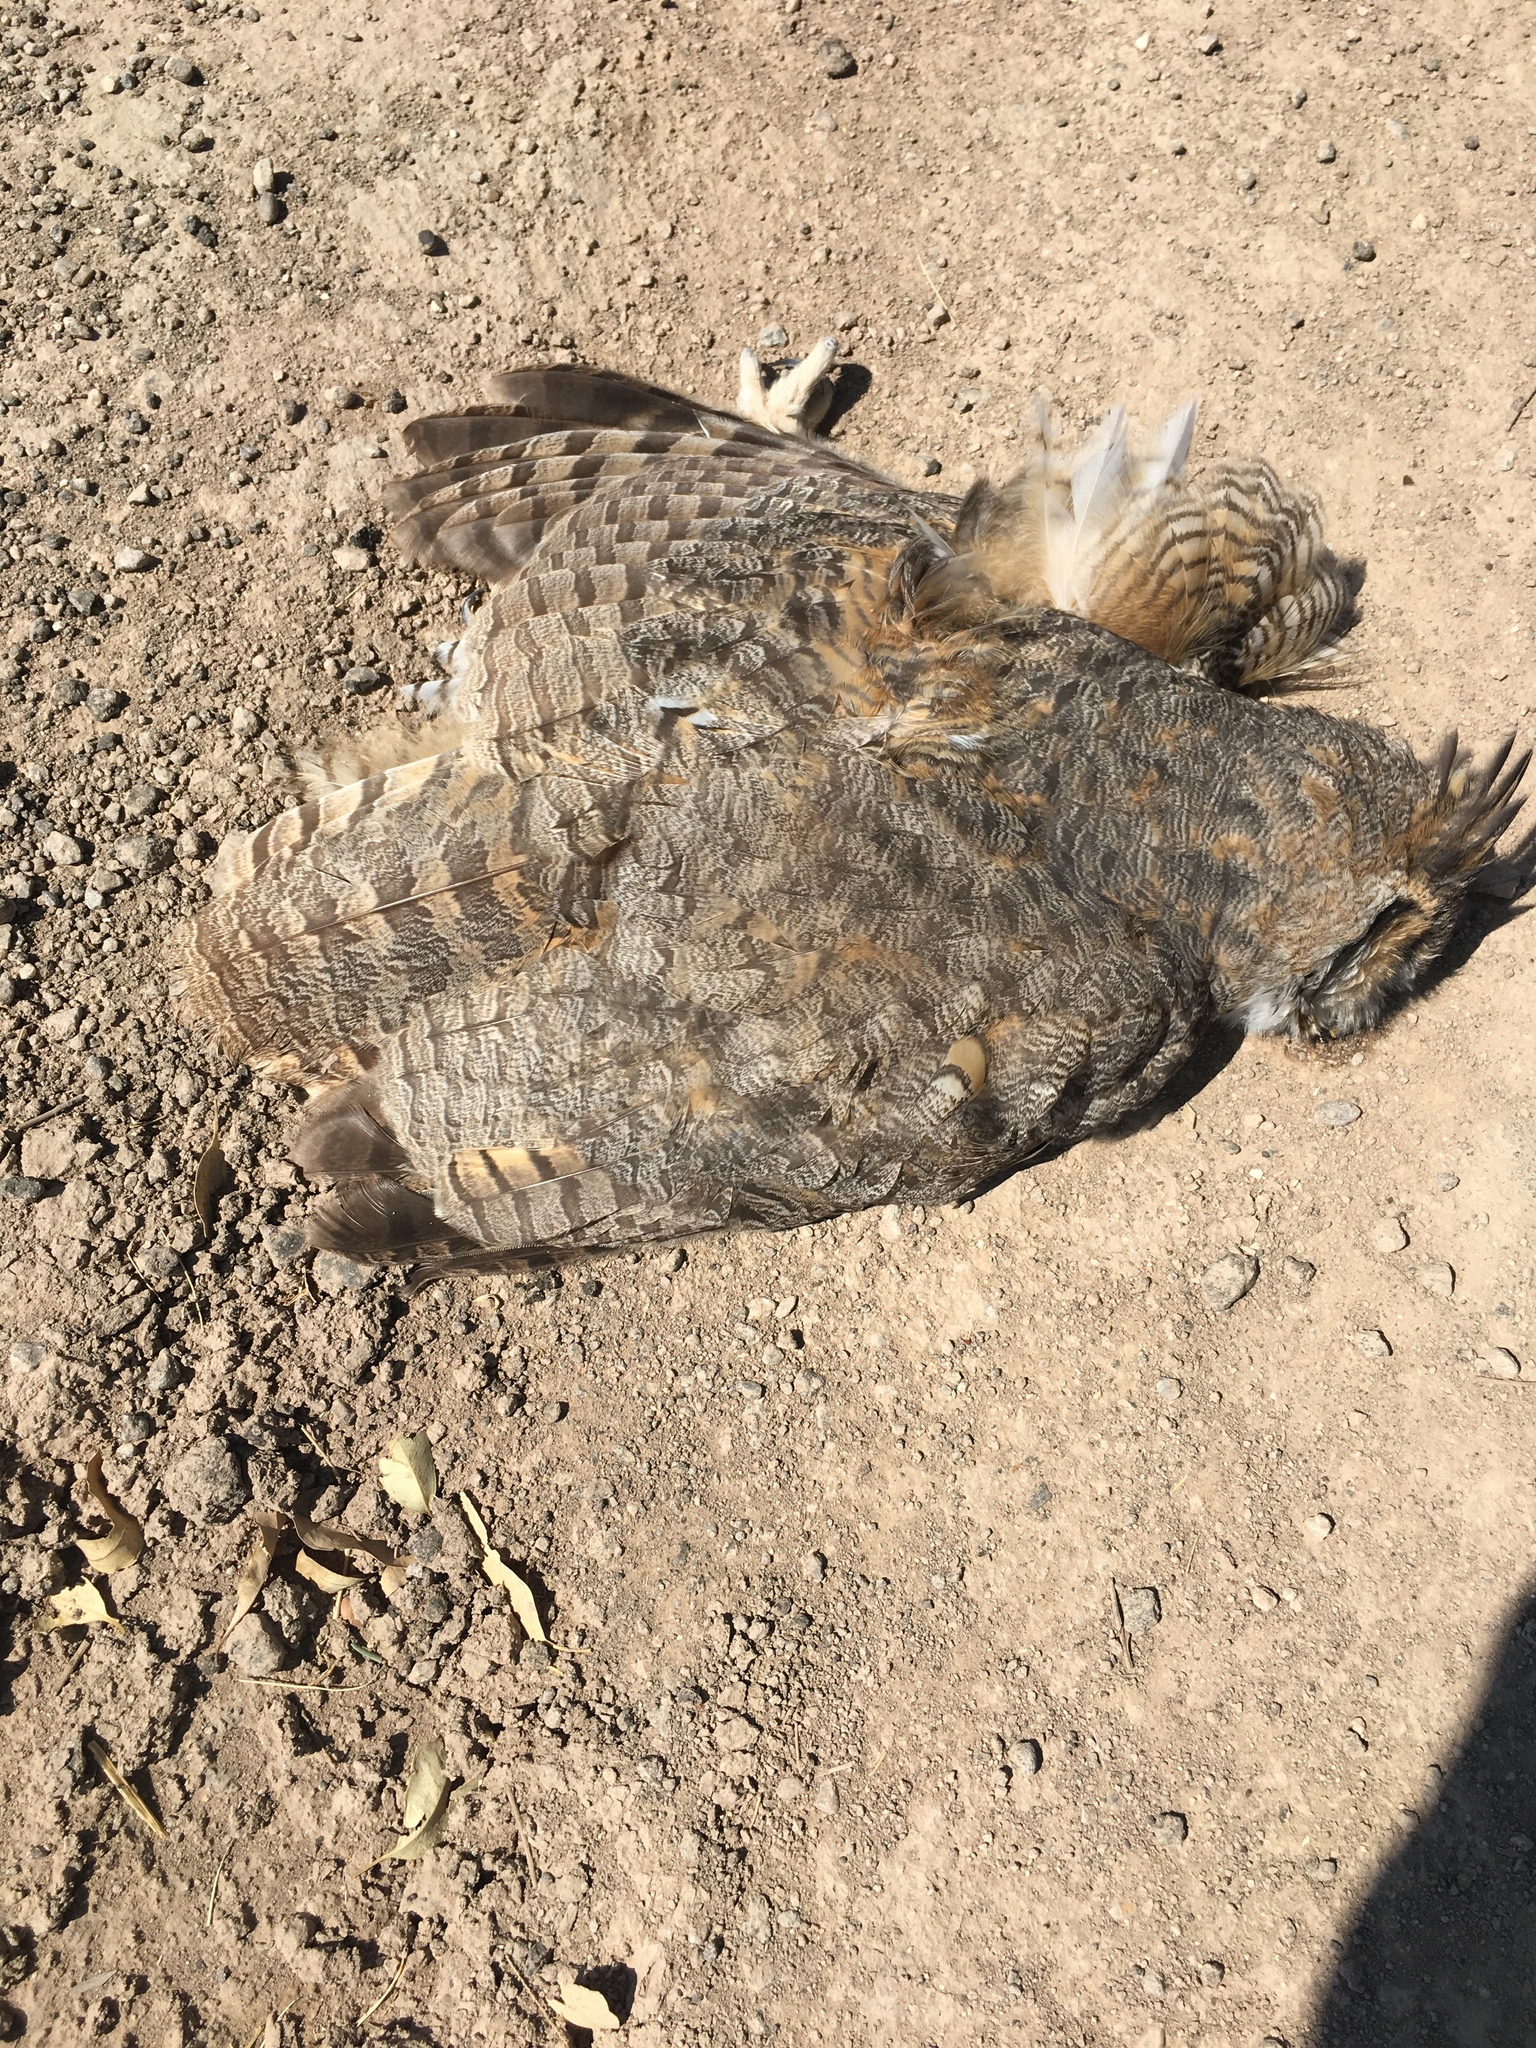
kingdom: Animalia
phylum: Chordata
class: Aves
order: Strigiformes
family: Strigidae
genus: Bubo
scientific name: Bubo virginianus
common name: Great horned owl
